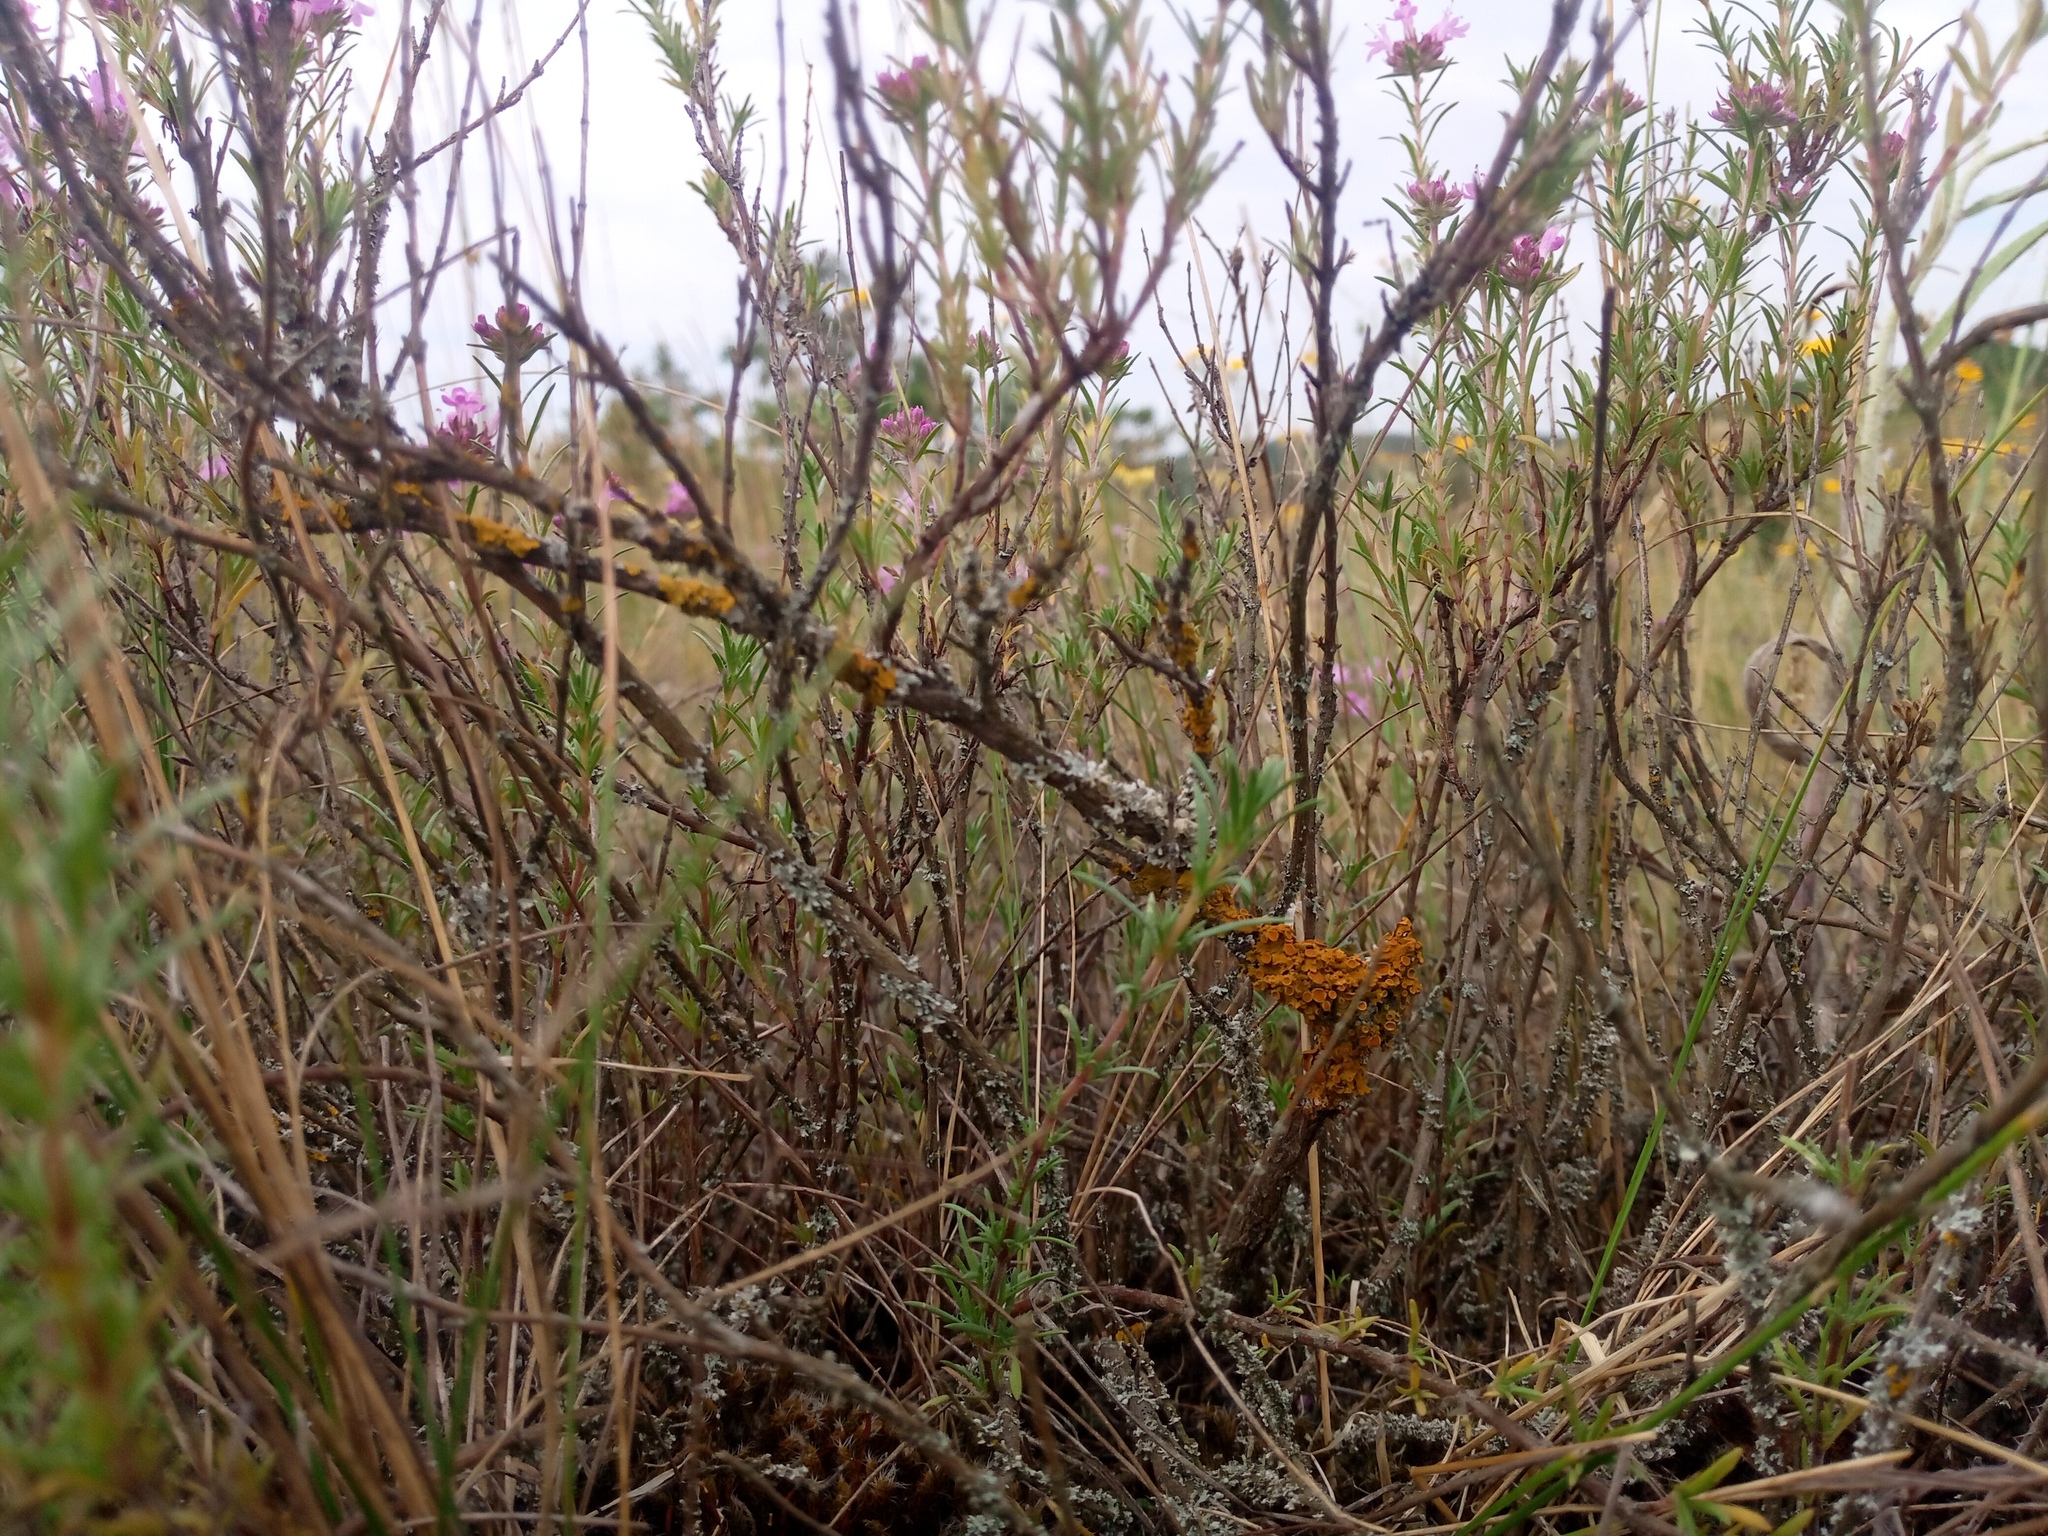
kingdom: Plantae
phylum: Tracheophyta
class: Magnoliopsida
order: Lamiales
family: Lamiaceae
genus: Thymus
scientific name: Thymus pallasianus
